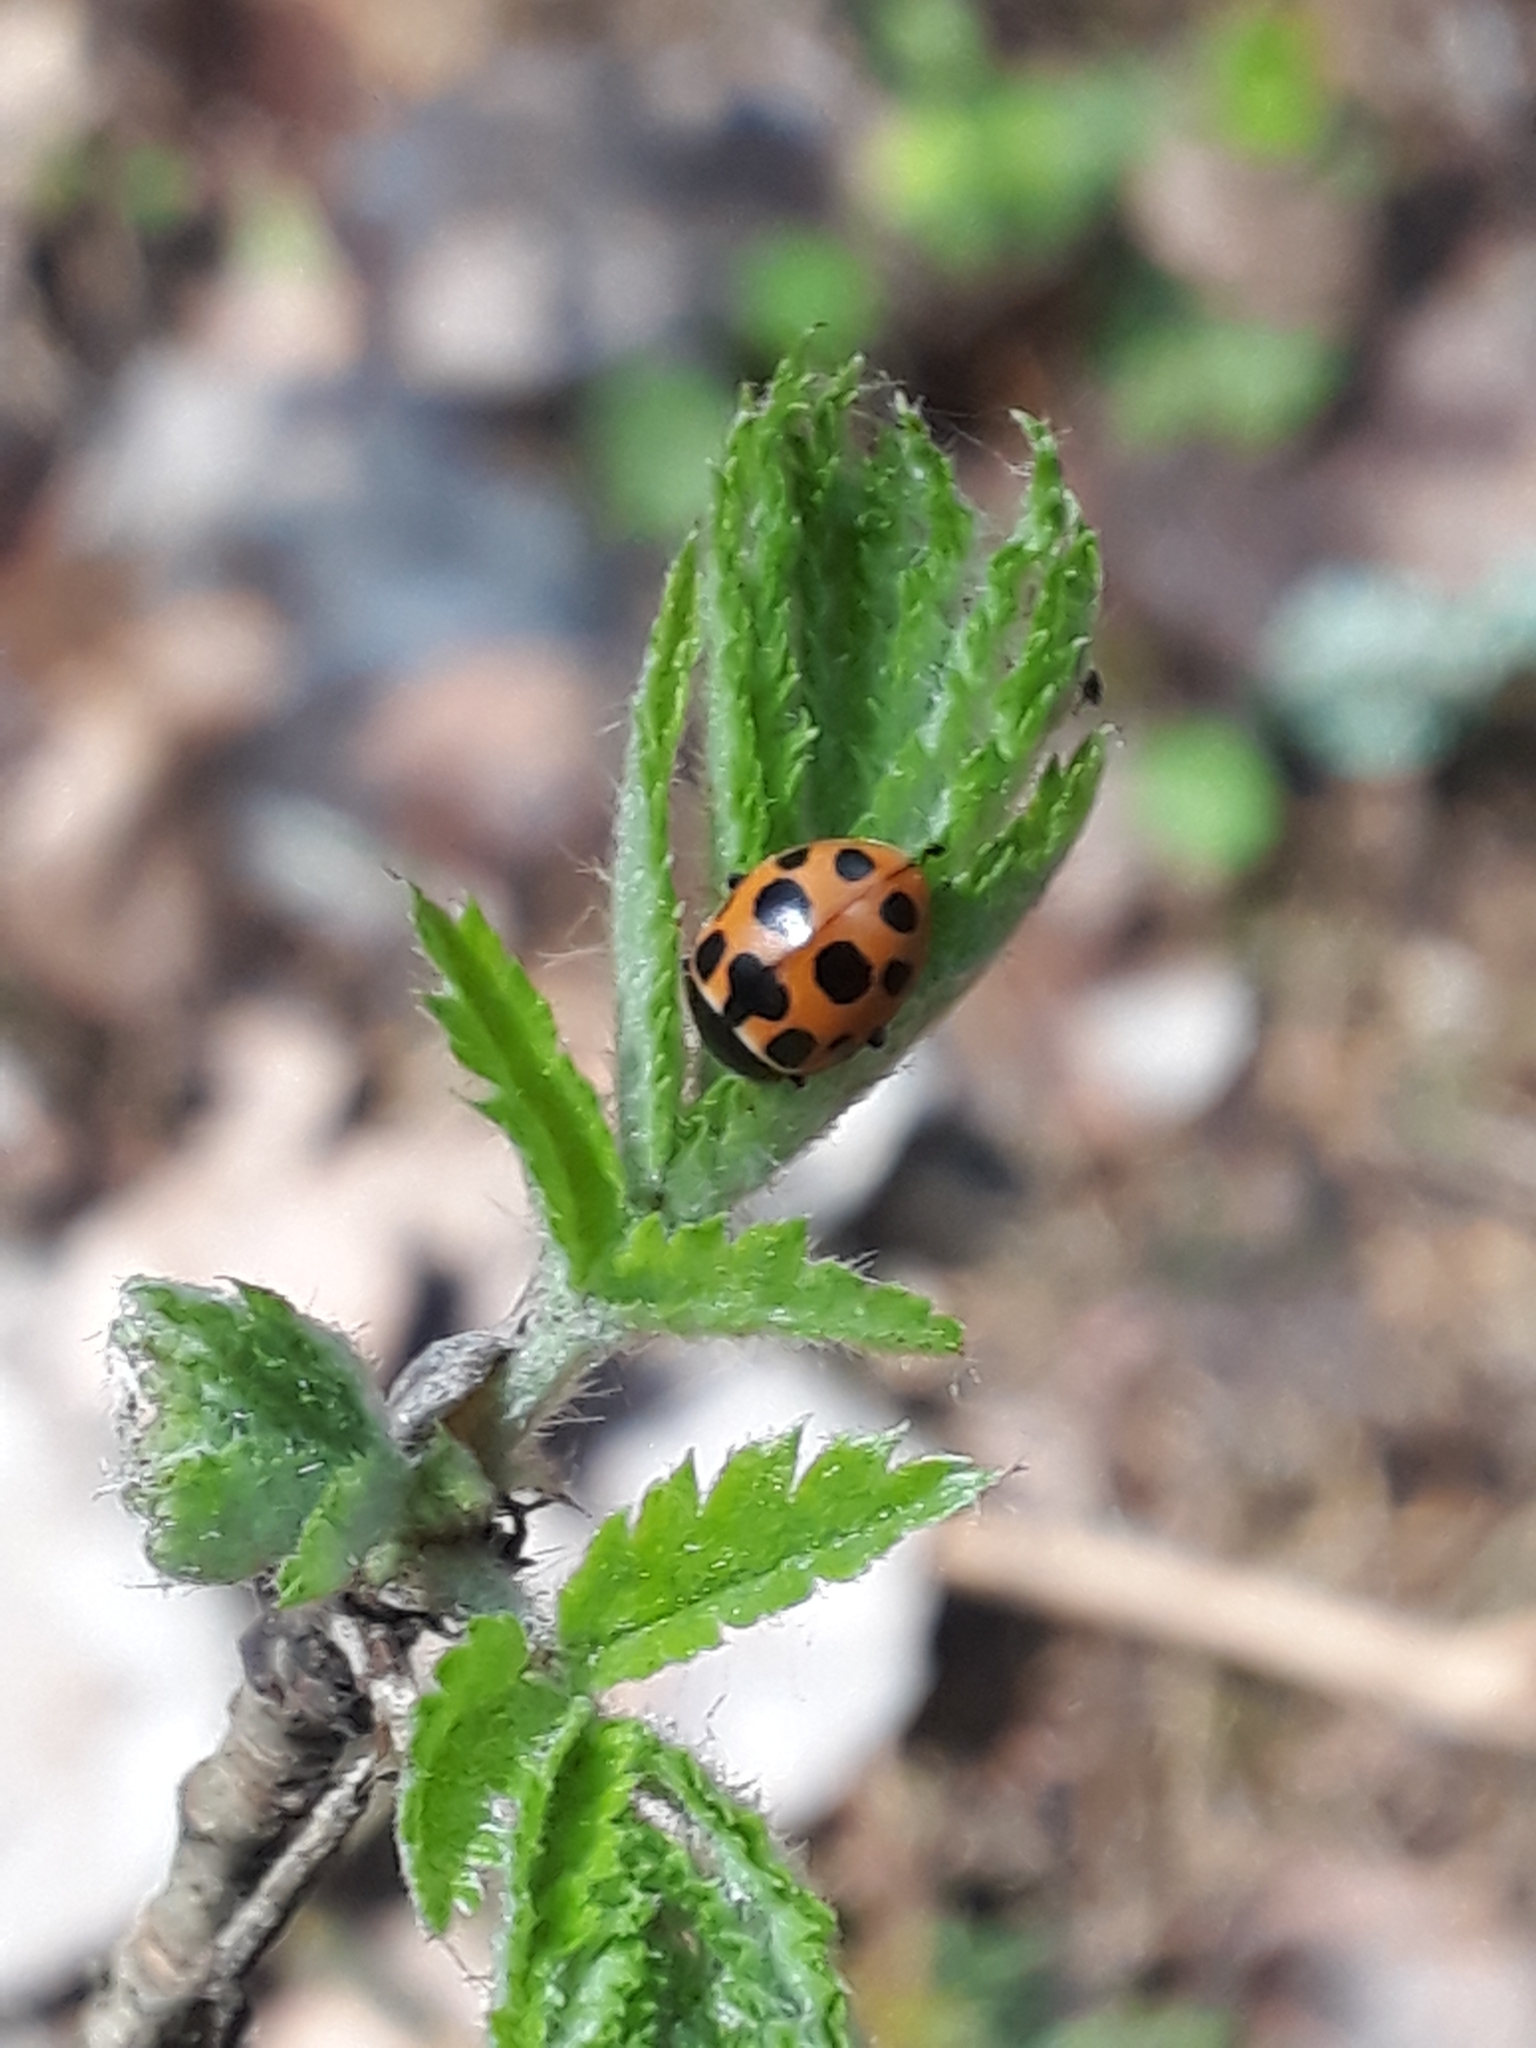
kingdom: Animalia
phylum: Arthropoda
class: Insecta
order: Coleoptera
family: Coccinellidae
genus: Ceratomegilla
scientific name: Ceratomegilla notata
